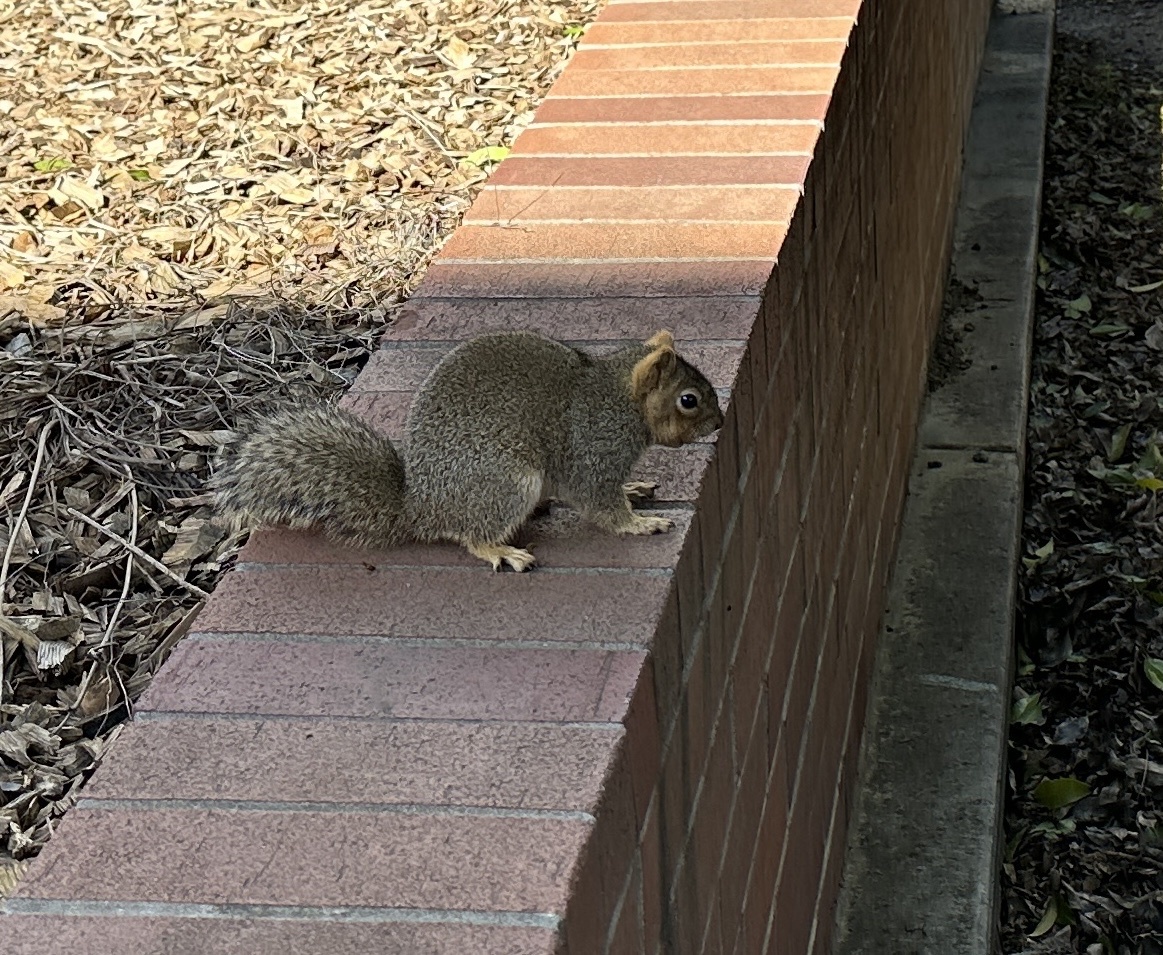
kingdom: Animalia
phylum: Chordata
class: Mammalia
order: Rodentia
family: Sciuridae
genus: Sciurus
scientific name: Sciurus niger
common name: Fox squirrel
